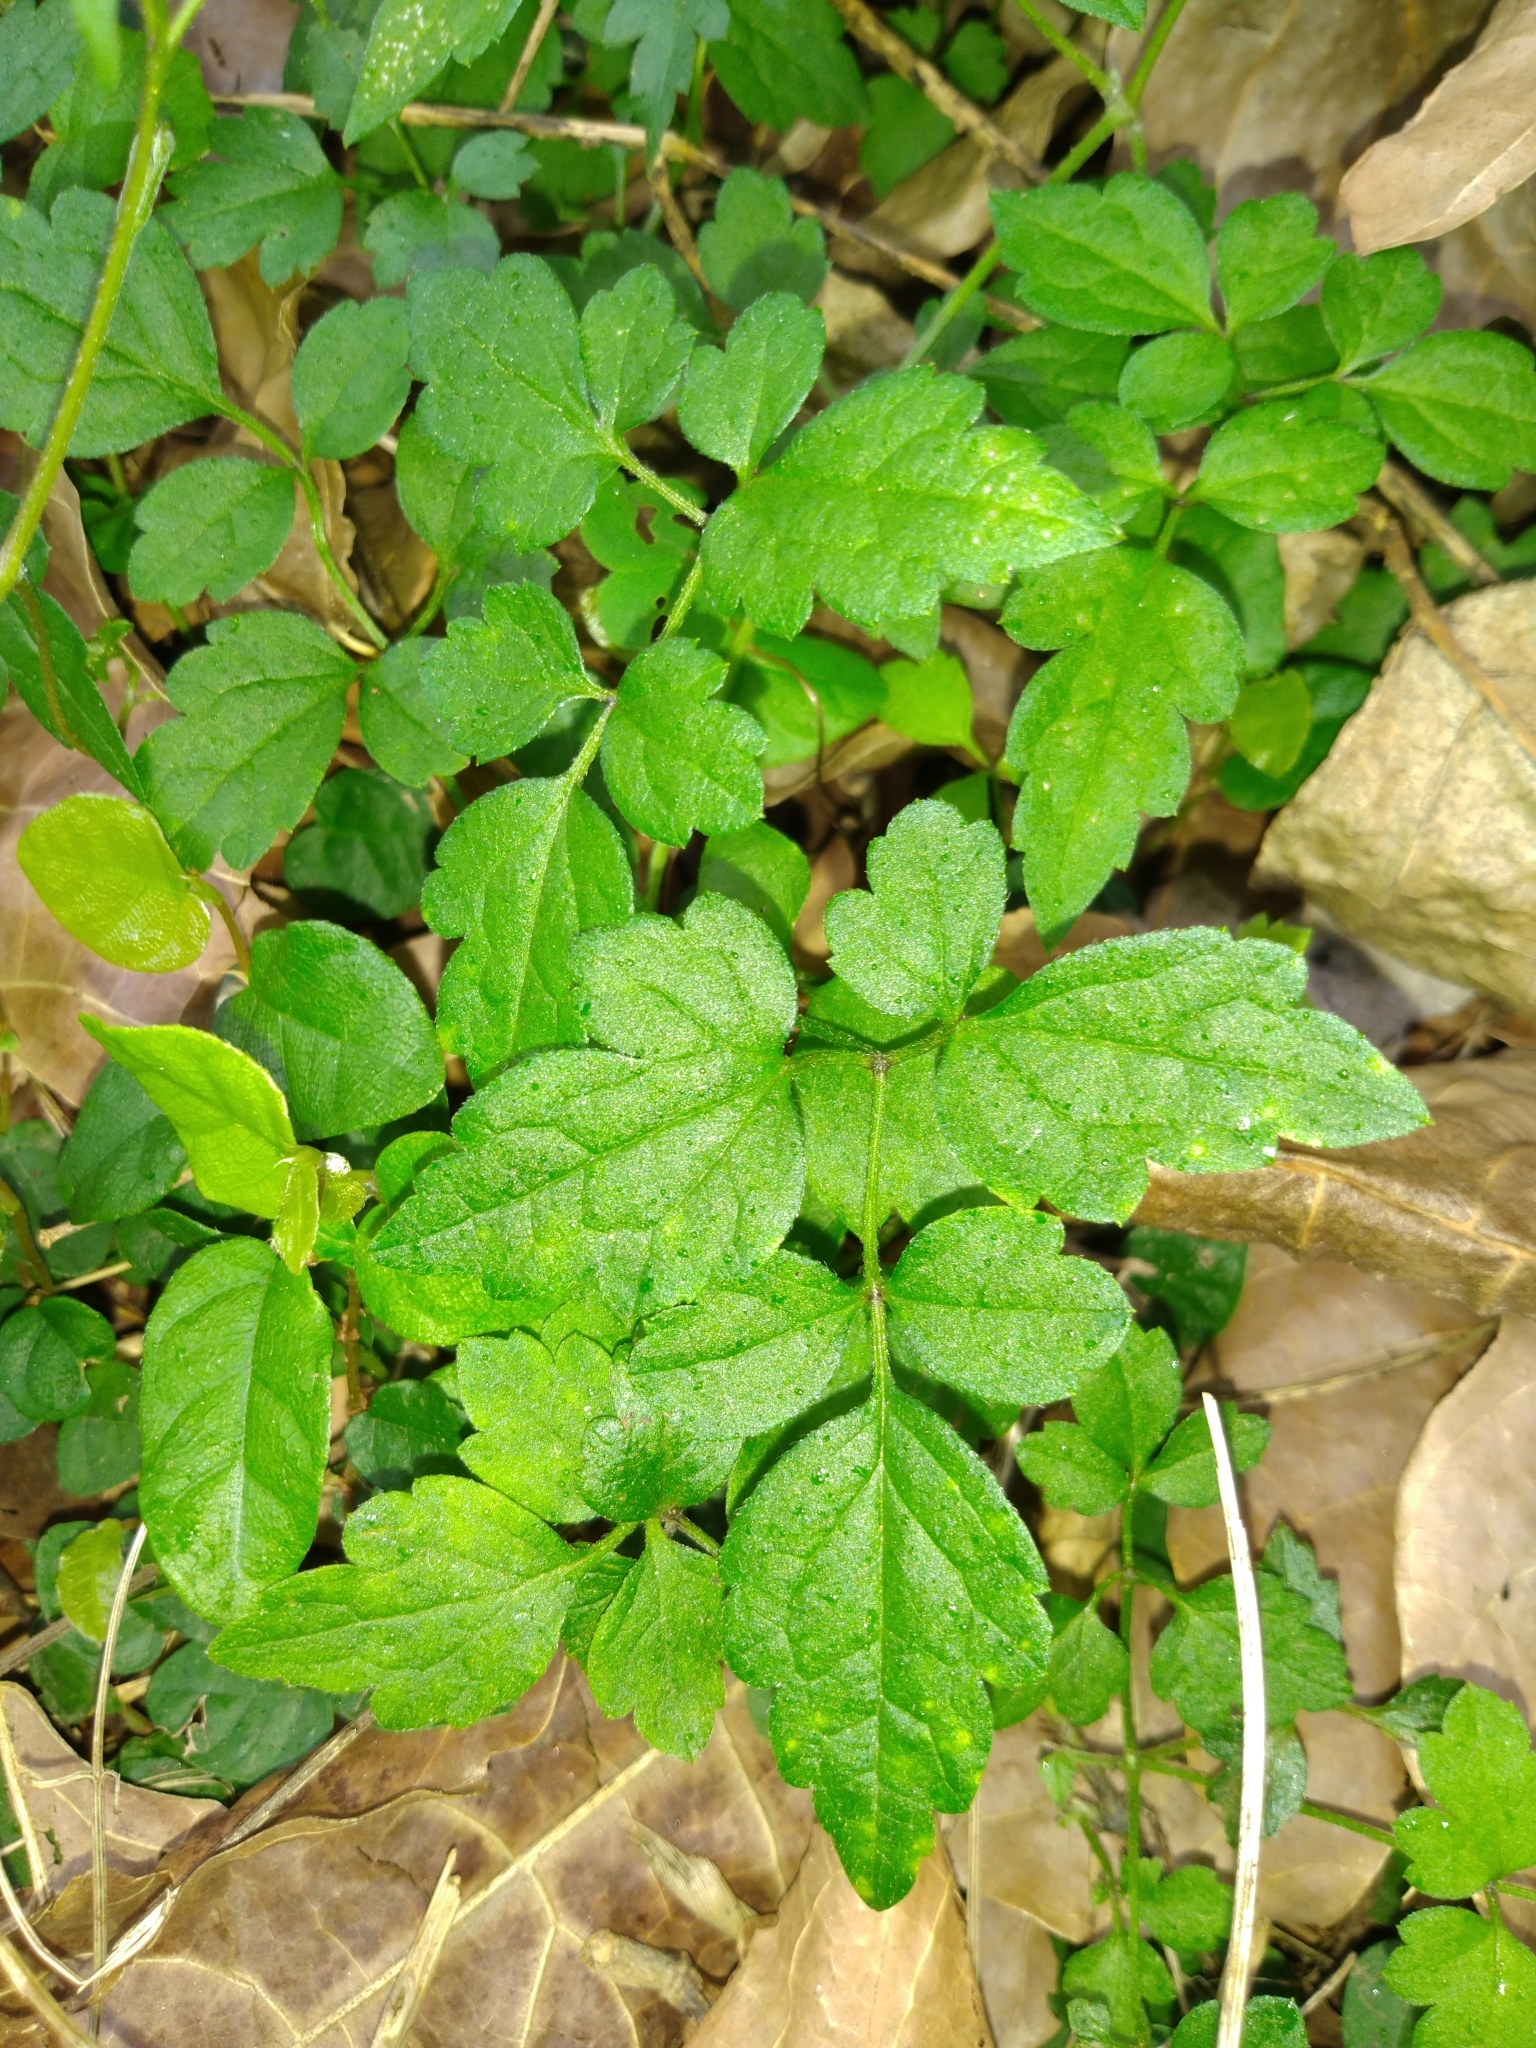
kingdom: Plantae
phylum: Tracheophyta
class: Magnoliopsida
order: Ranunculales
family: Ranunculaceae
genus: Clematis
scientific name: Clematis grata
